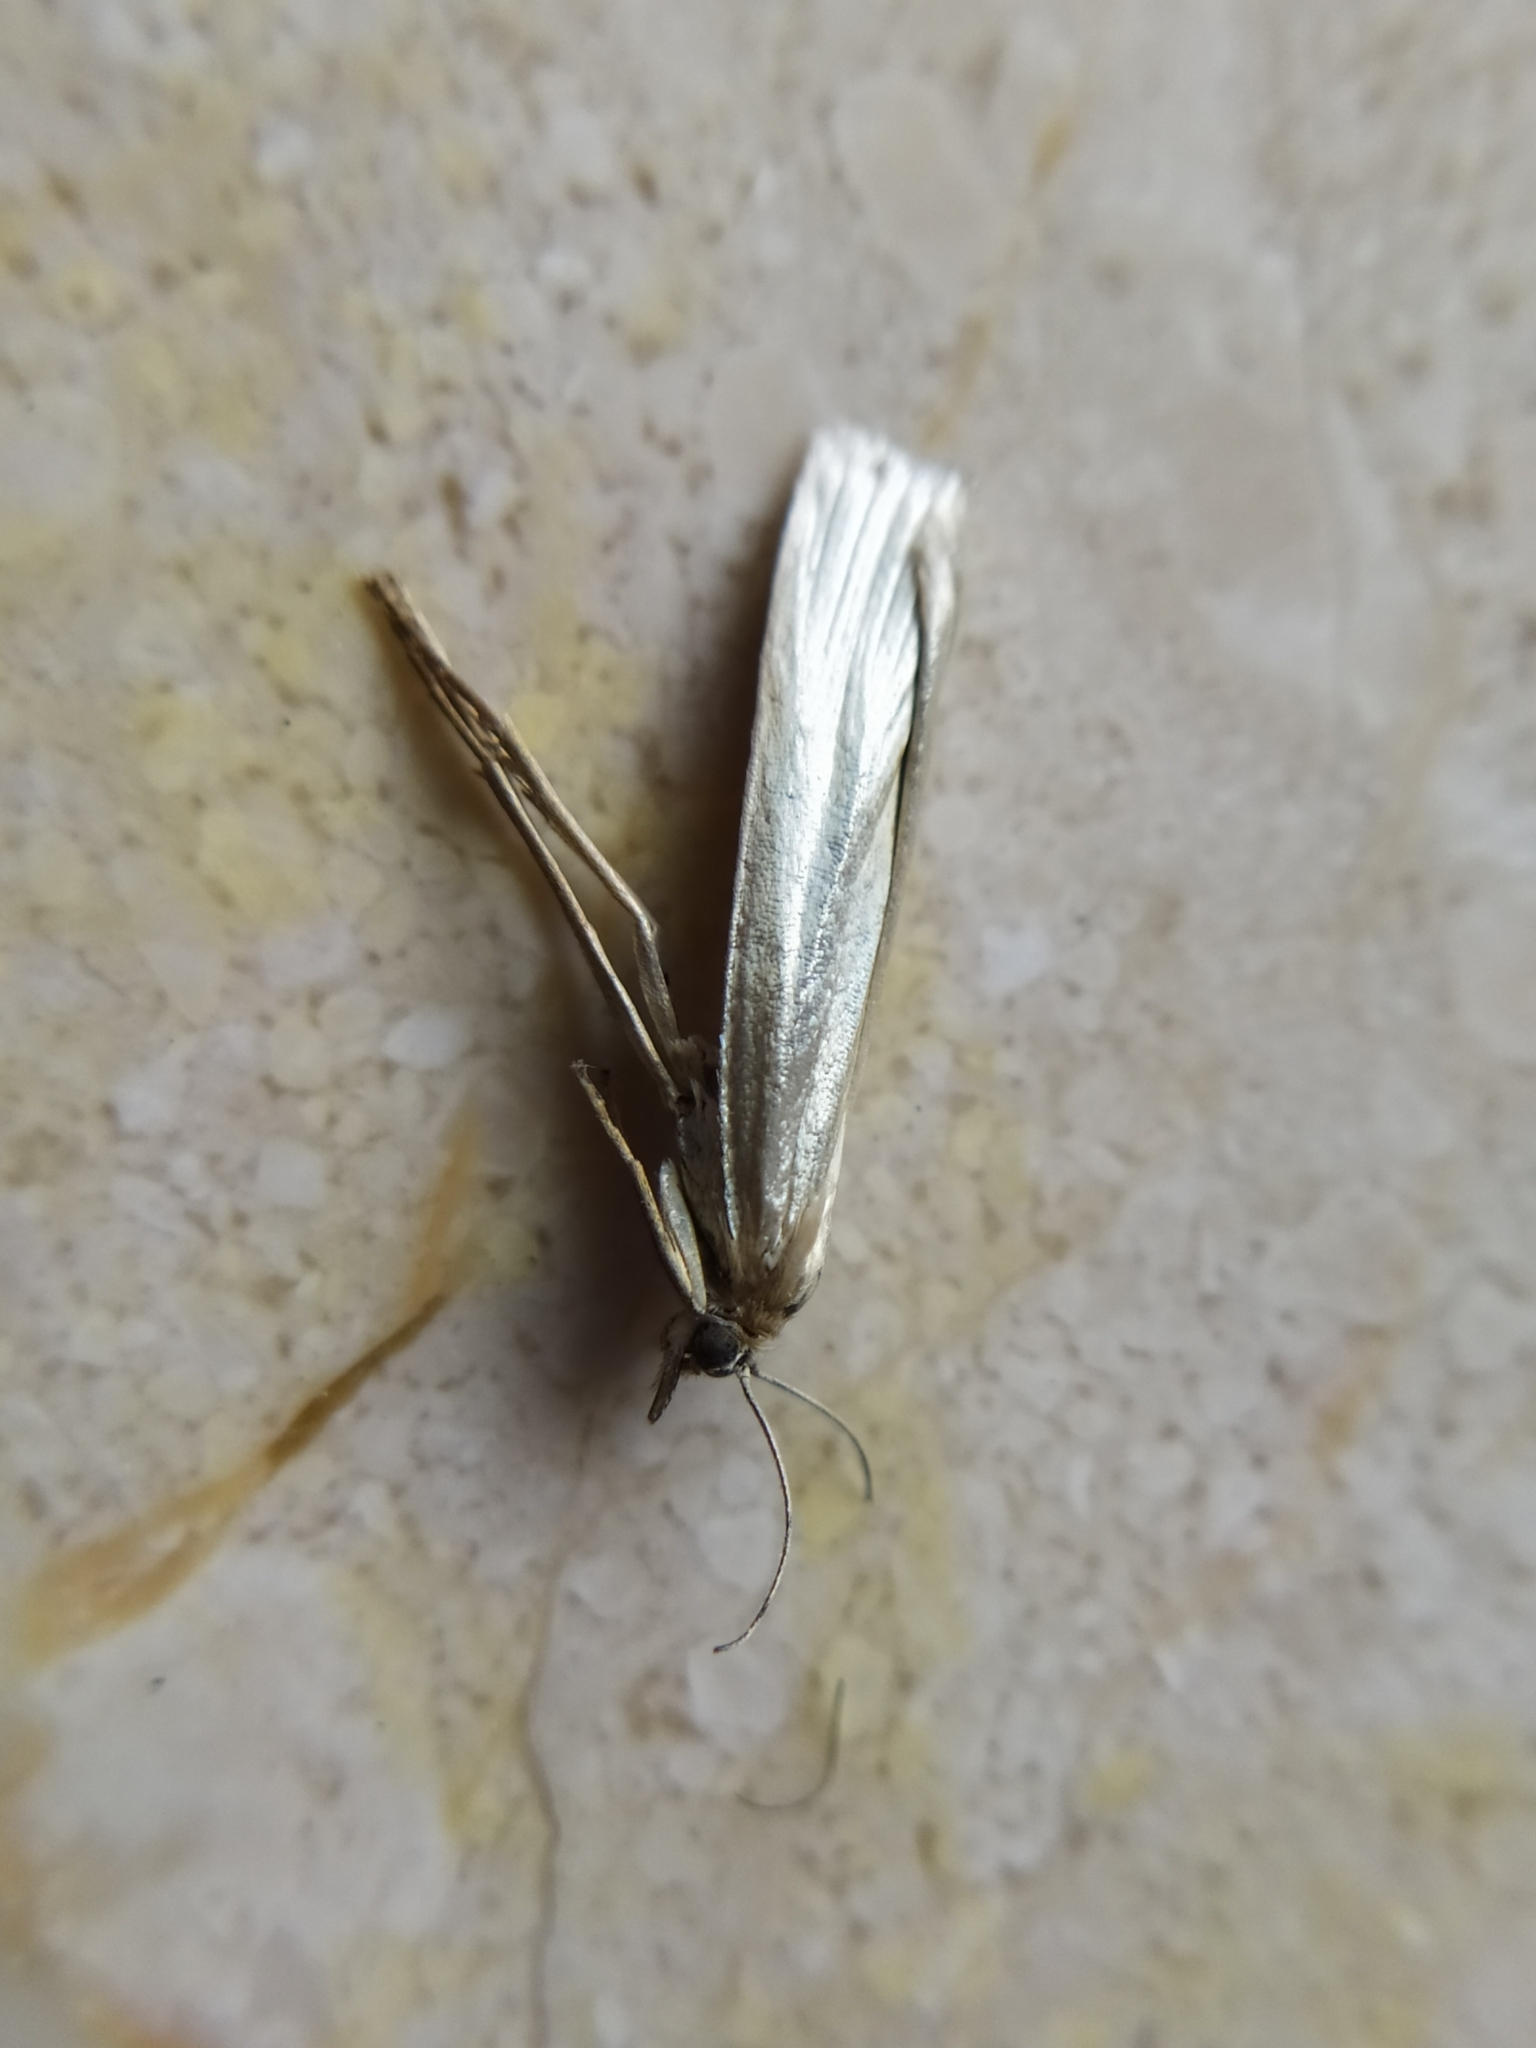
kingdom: Animalia
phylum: Arthropoda
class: Insecta
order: Lepidoptera
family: Crambidae
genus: Crambus
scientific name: Crambus perlellus
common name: Yellow satin veneer
